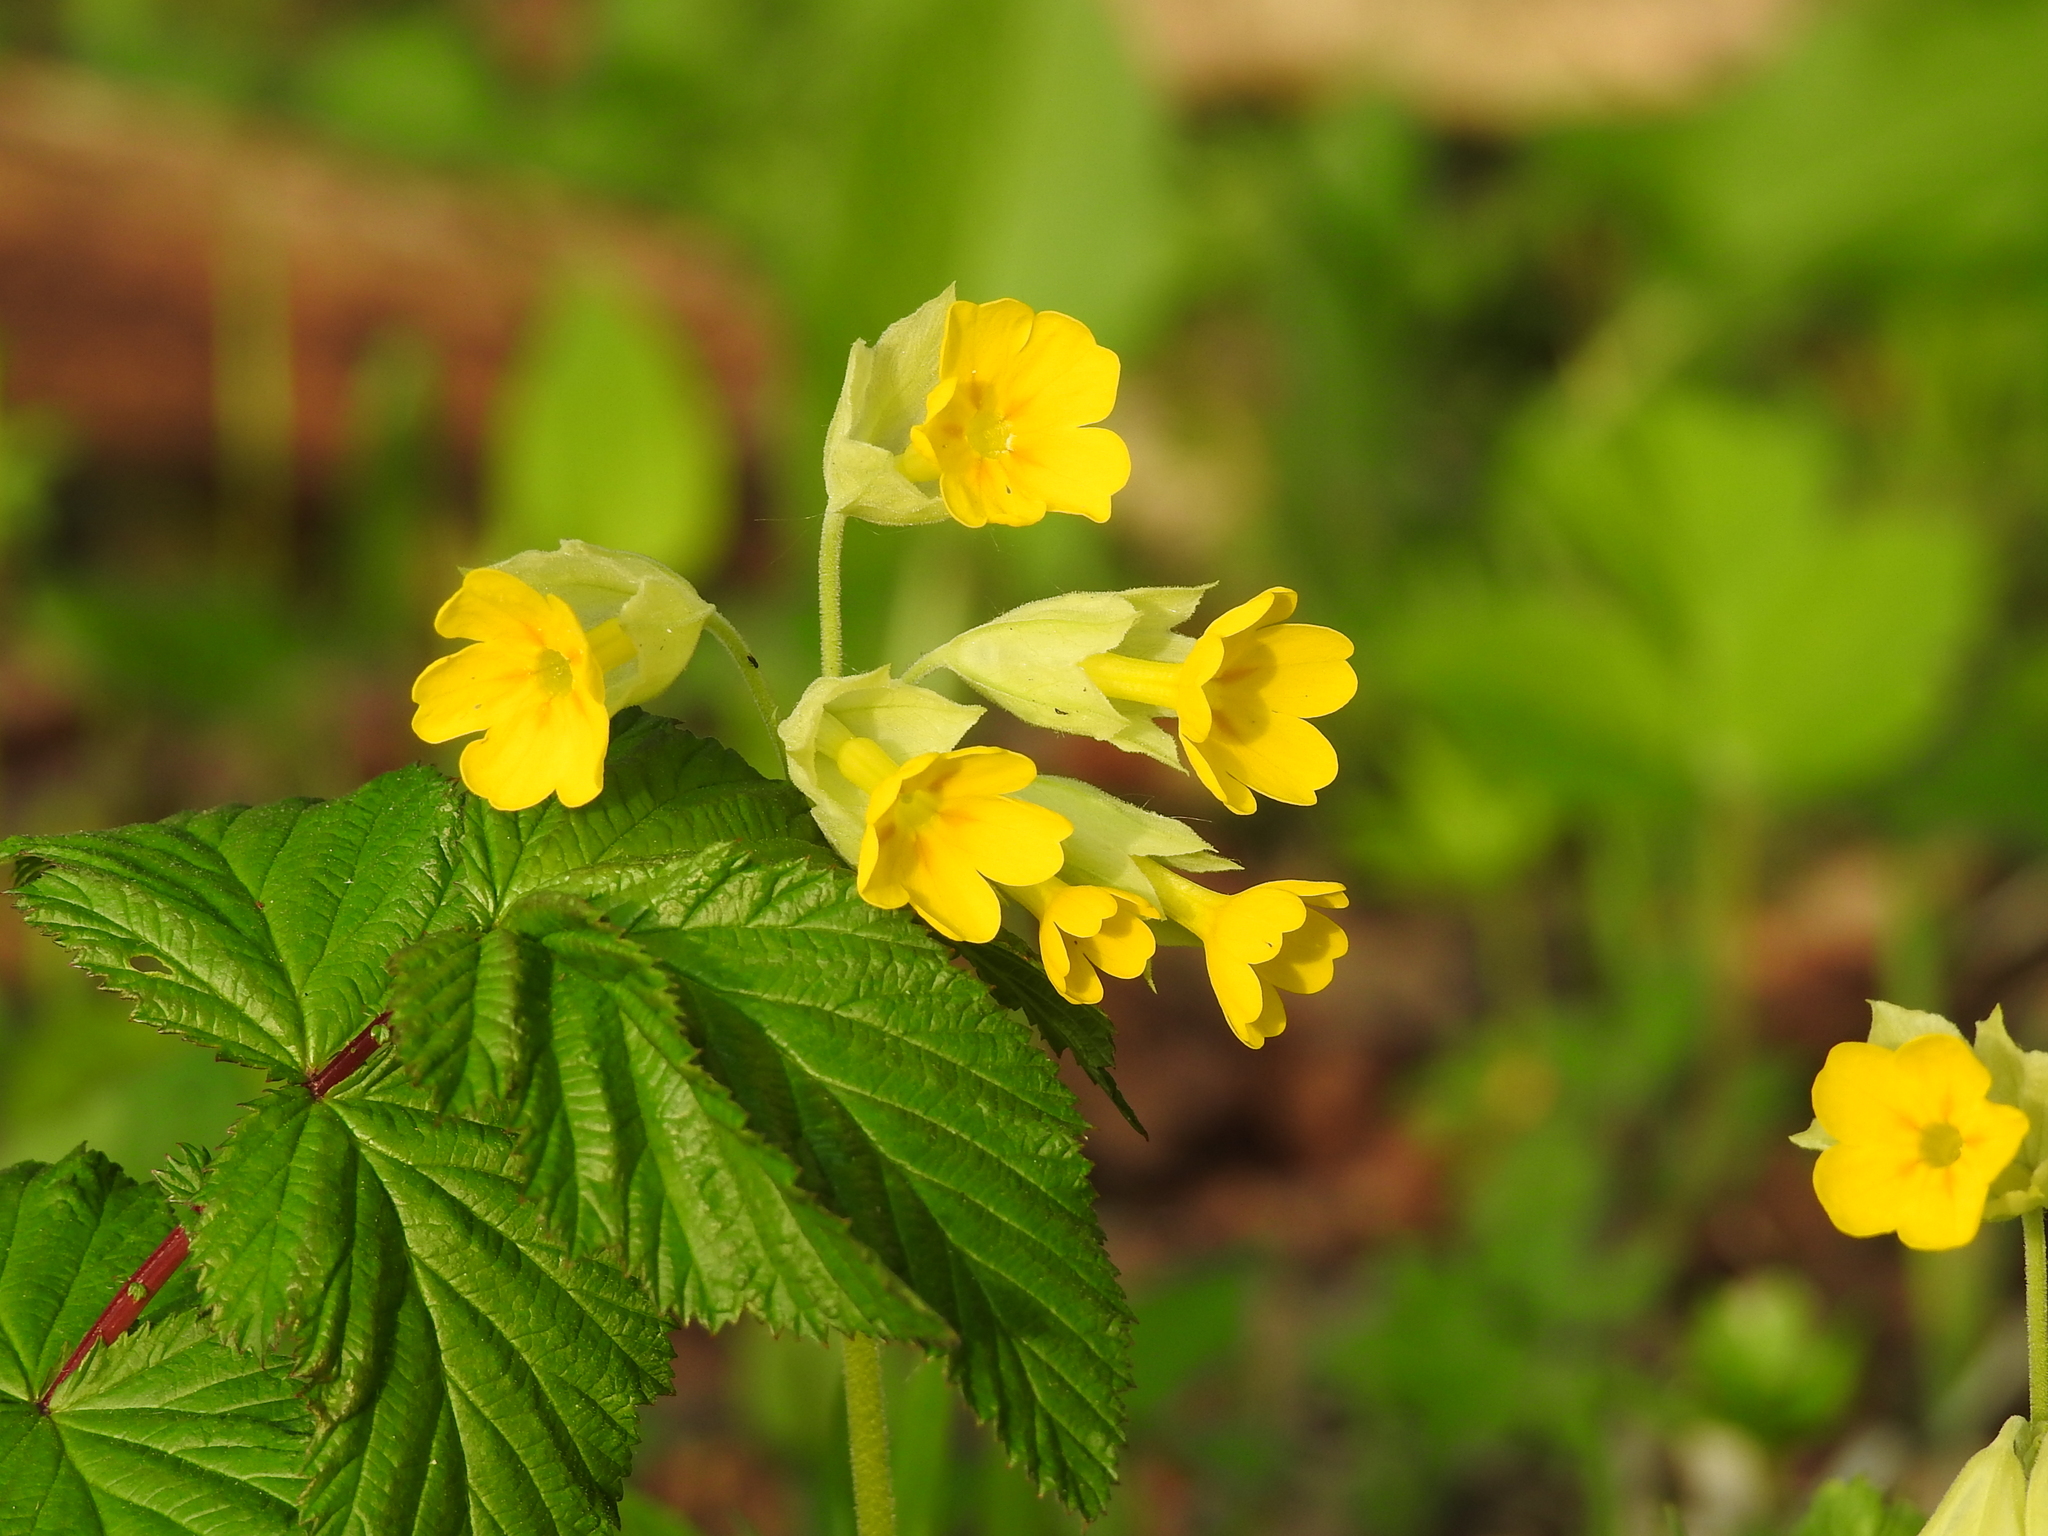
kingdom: Plantae
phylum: Tracheophyta
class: Magnoliopsida
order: Ericales
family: Primulaceae
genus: Primula
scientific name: Primula veris
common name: Cowslip
